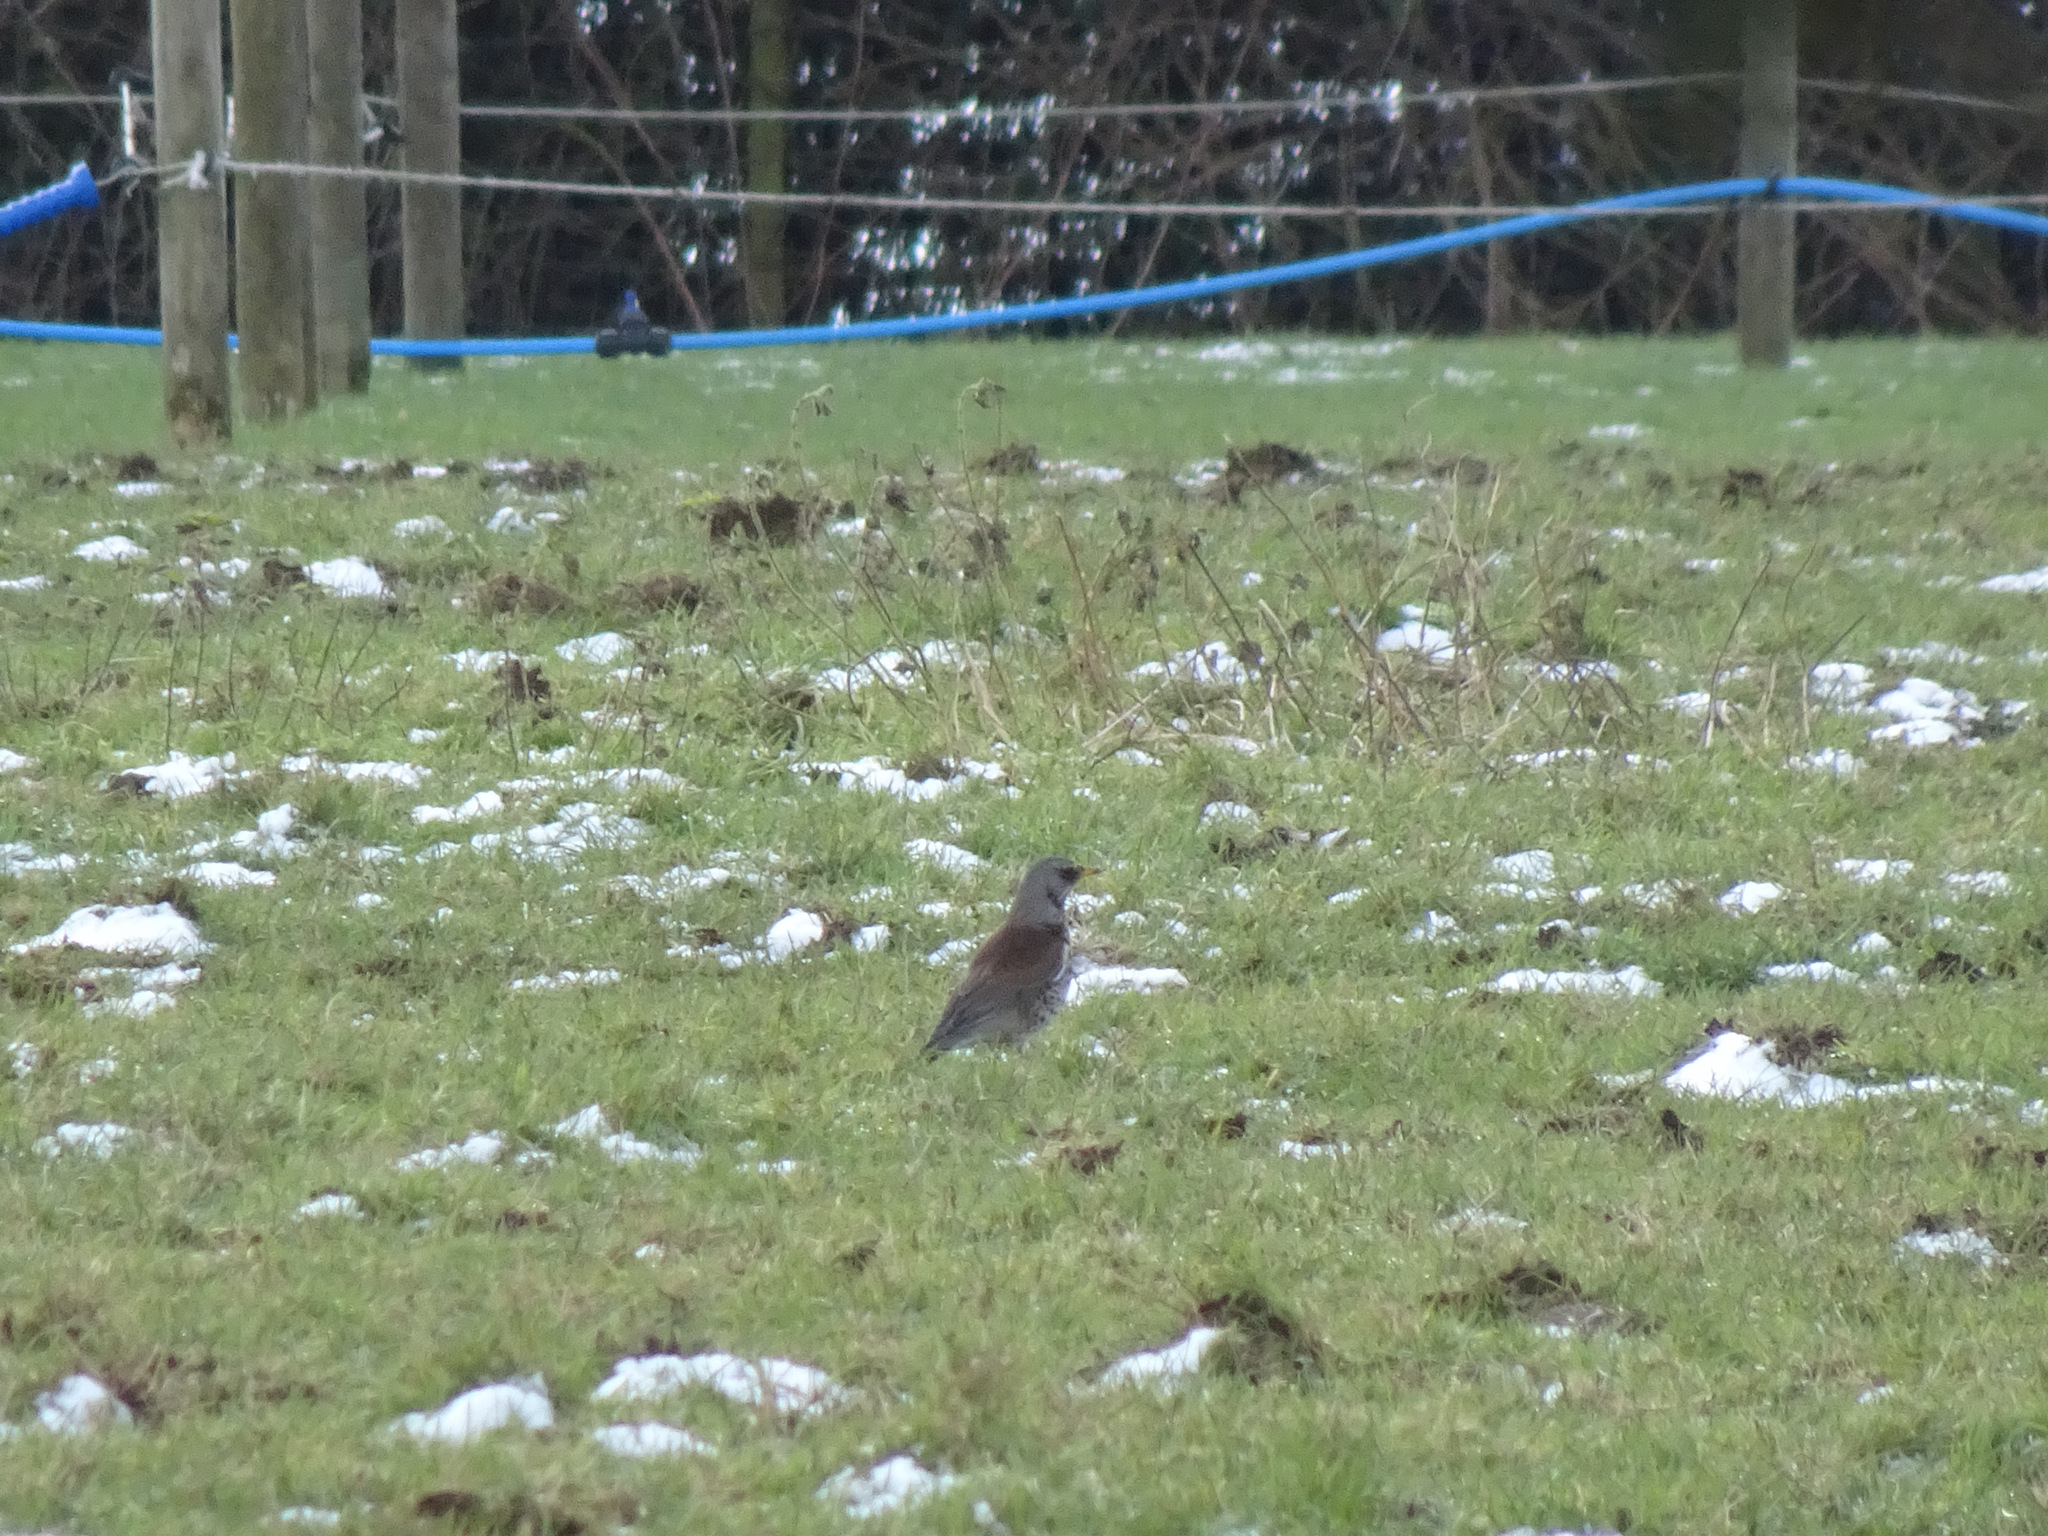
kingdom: Animalia
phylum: Chordata
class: Aves
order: Passeriformes
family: Turdidae
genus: Turdus
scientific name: Turdus pilaris
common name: Fieldfare
